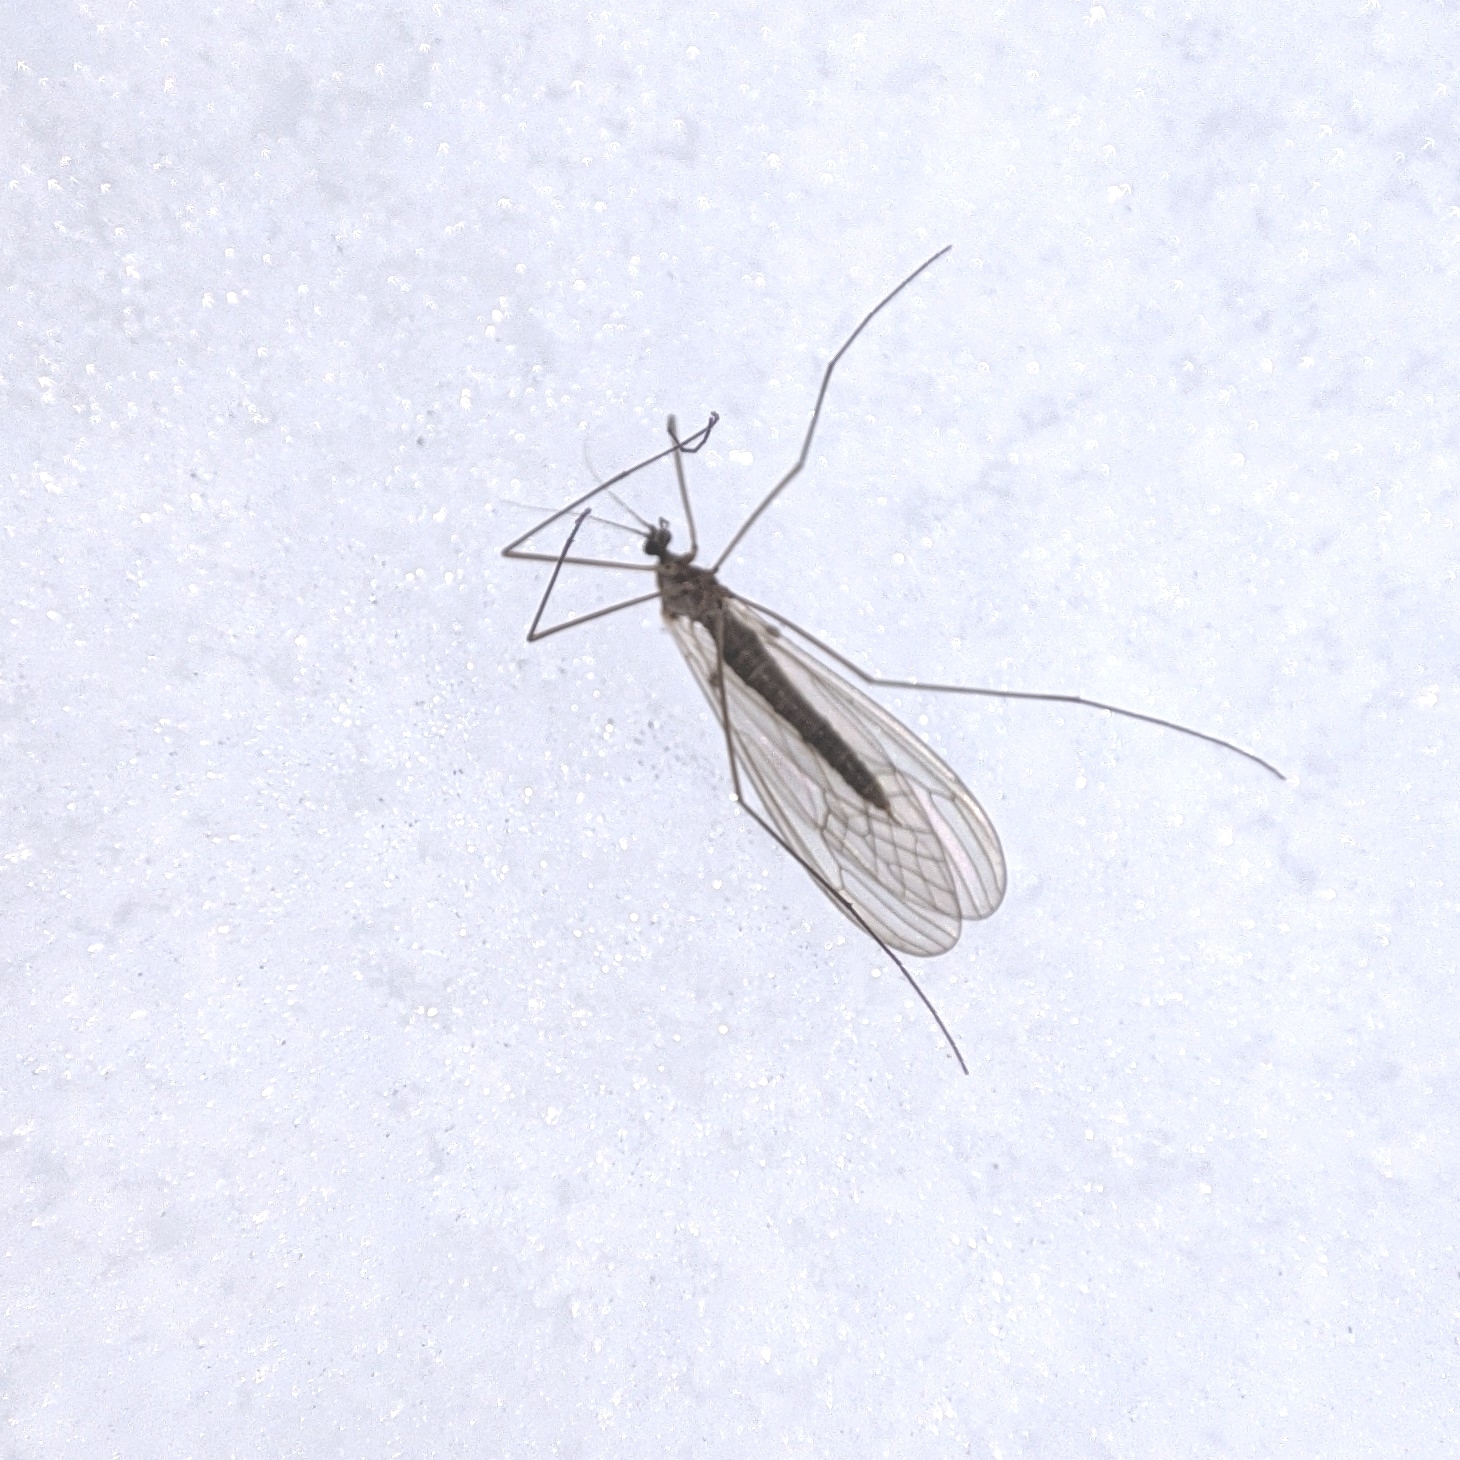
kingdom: Animalia
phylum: Arthropoda
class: Insecta
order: Diptera
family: Trichoceridae
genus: Trichocera
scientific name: Trichocera
